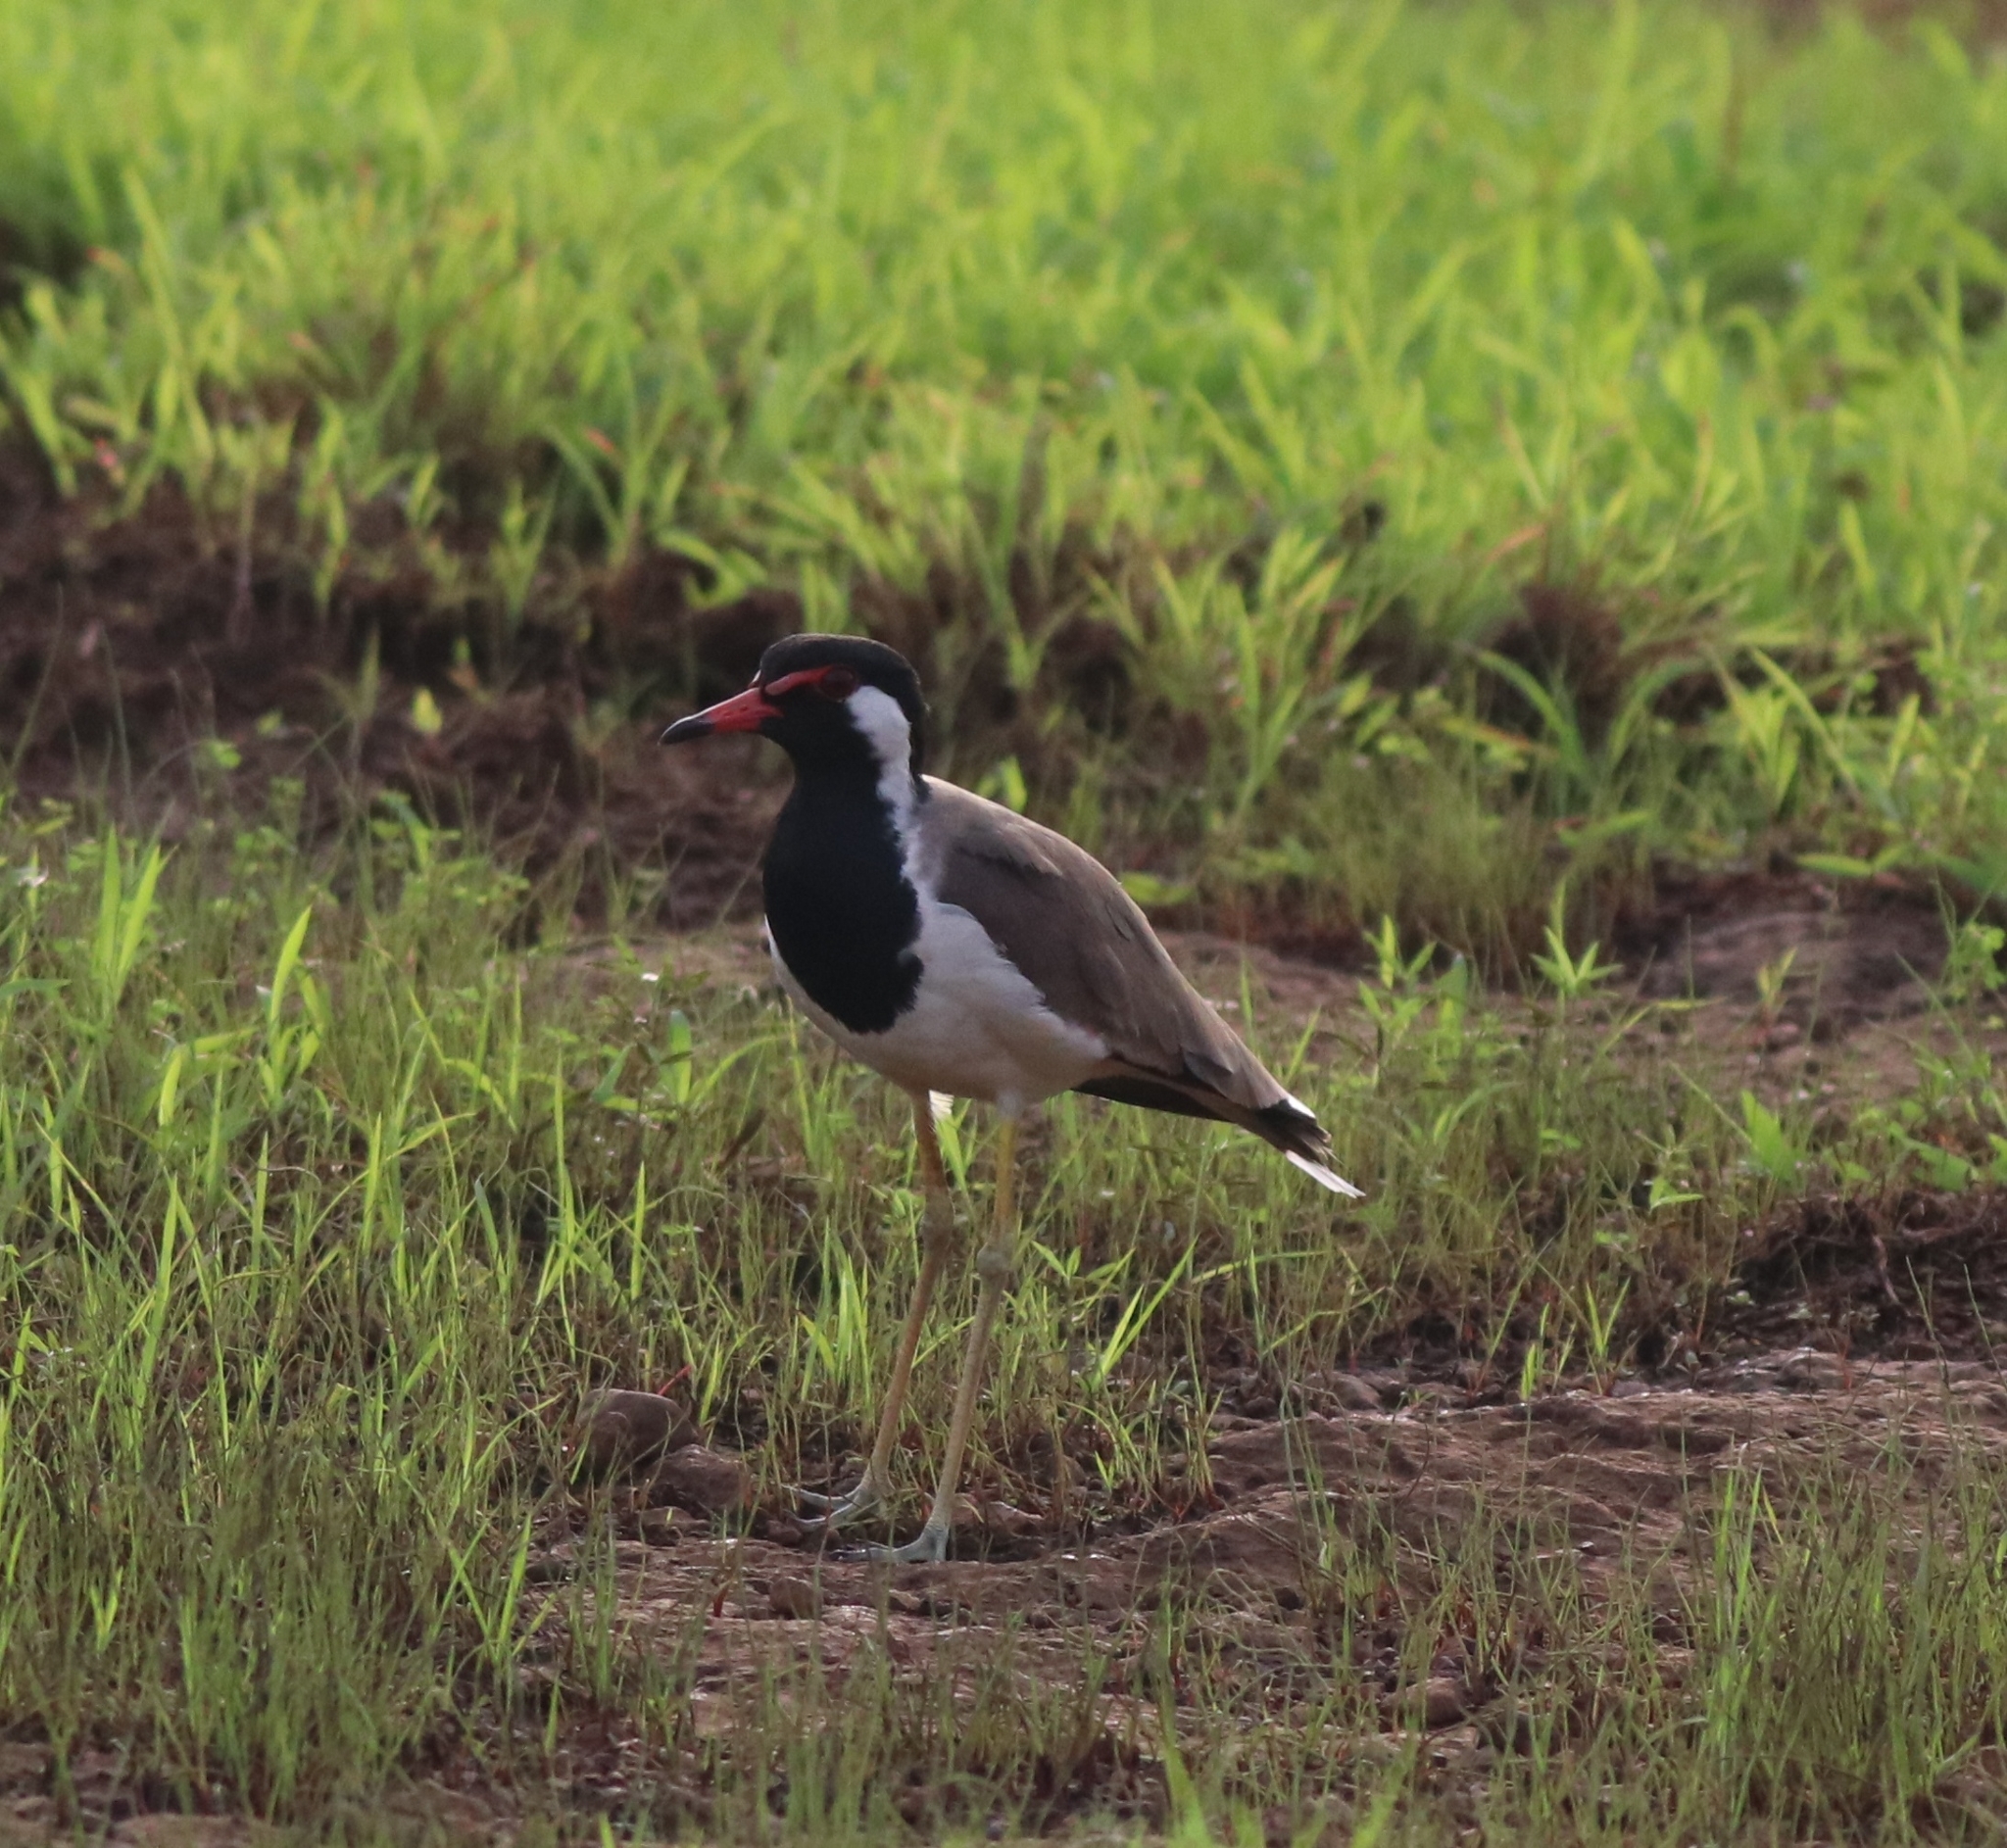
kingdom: Animalia
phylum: Chordata
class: Aves
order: Charadriiformes
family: Charadriidae
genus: Vanellus
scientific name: Vanellus indicus
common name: Red-wattled lapwing
